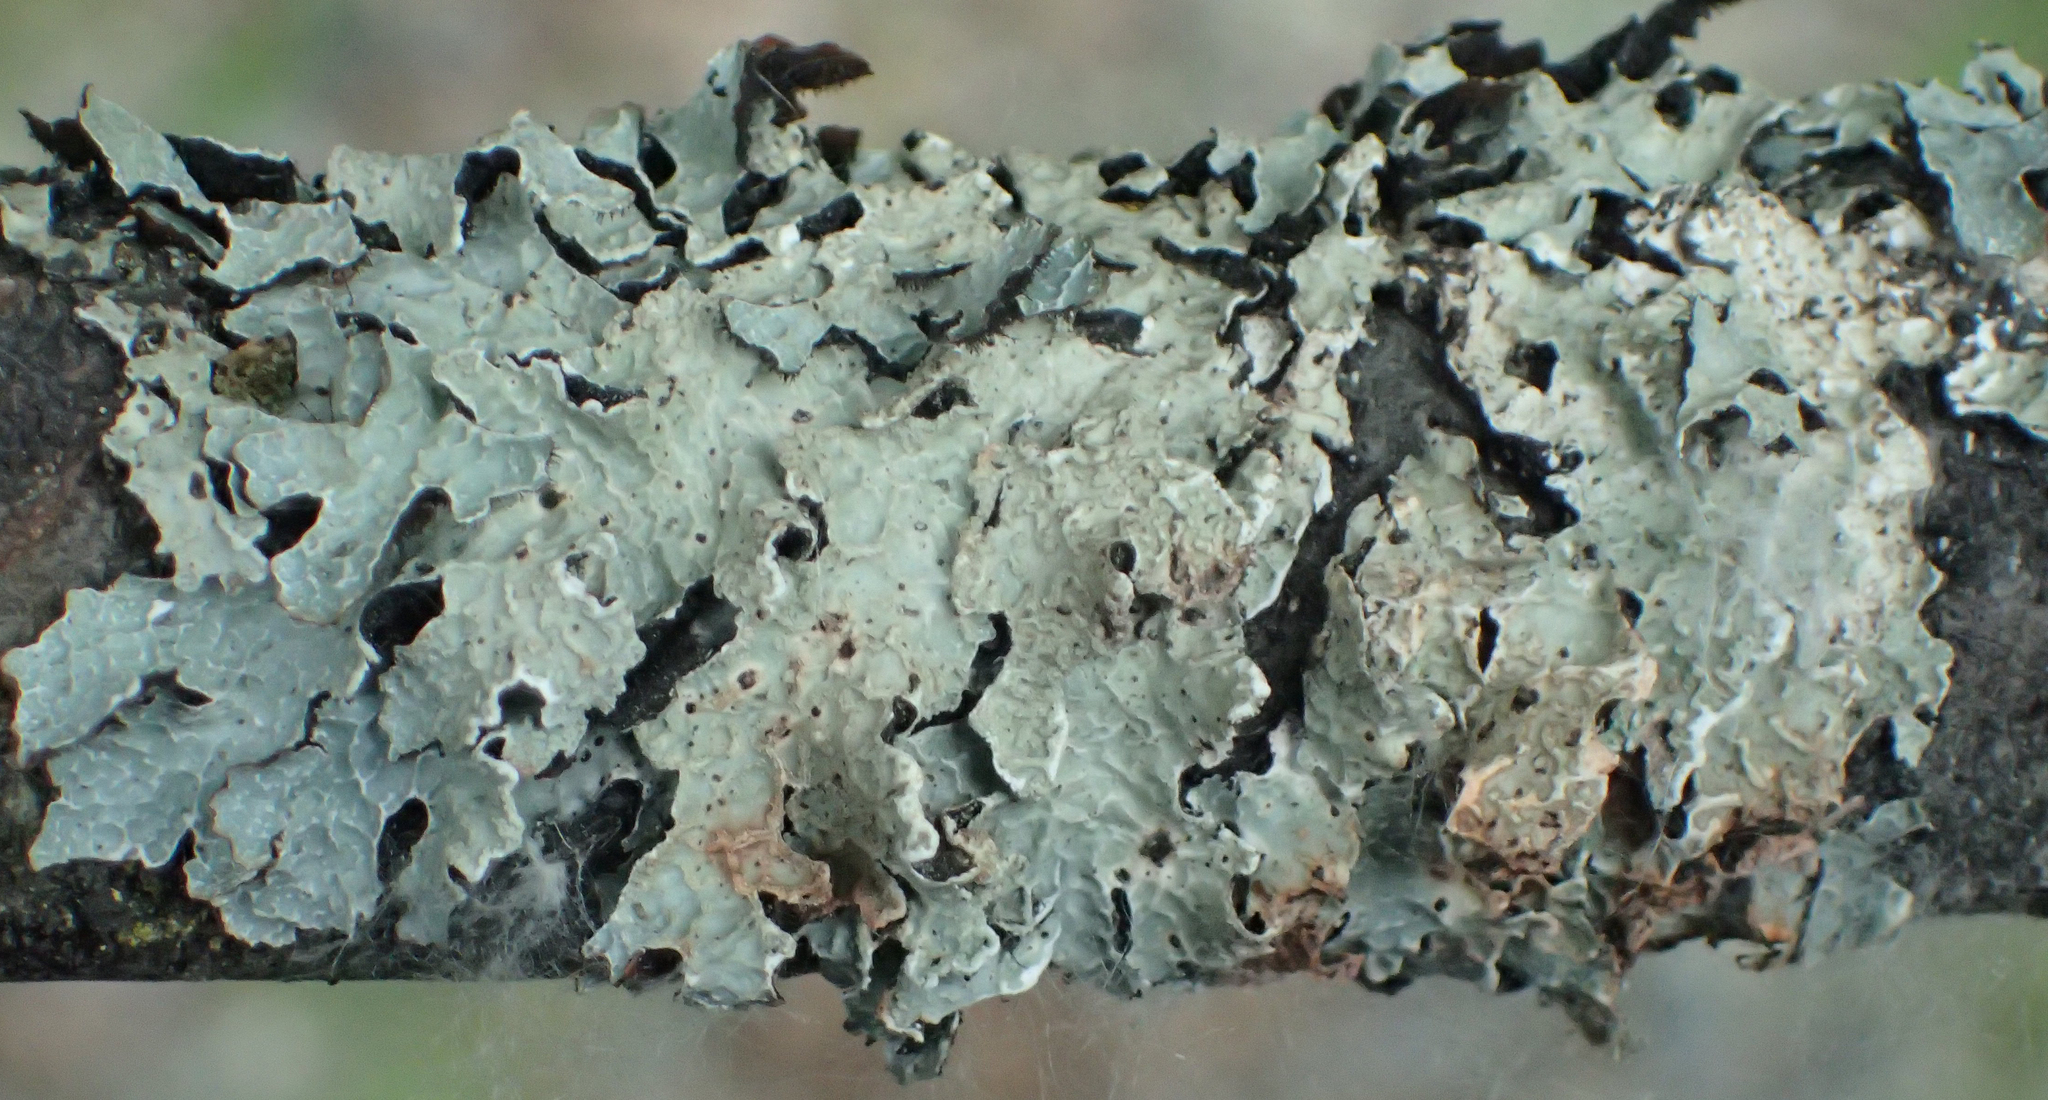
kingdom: Fungi
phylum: Ascomycota
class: Lecanoromycetes
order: Lecanorales
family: Parmeliaceae
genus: Parmelia
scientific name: Parmelia sulcata
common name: Netted shield lichen
